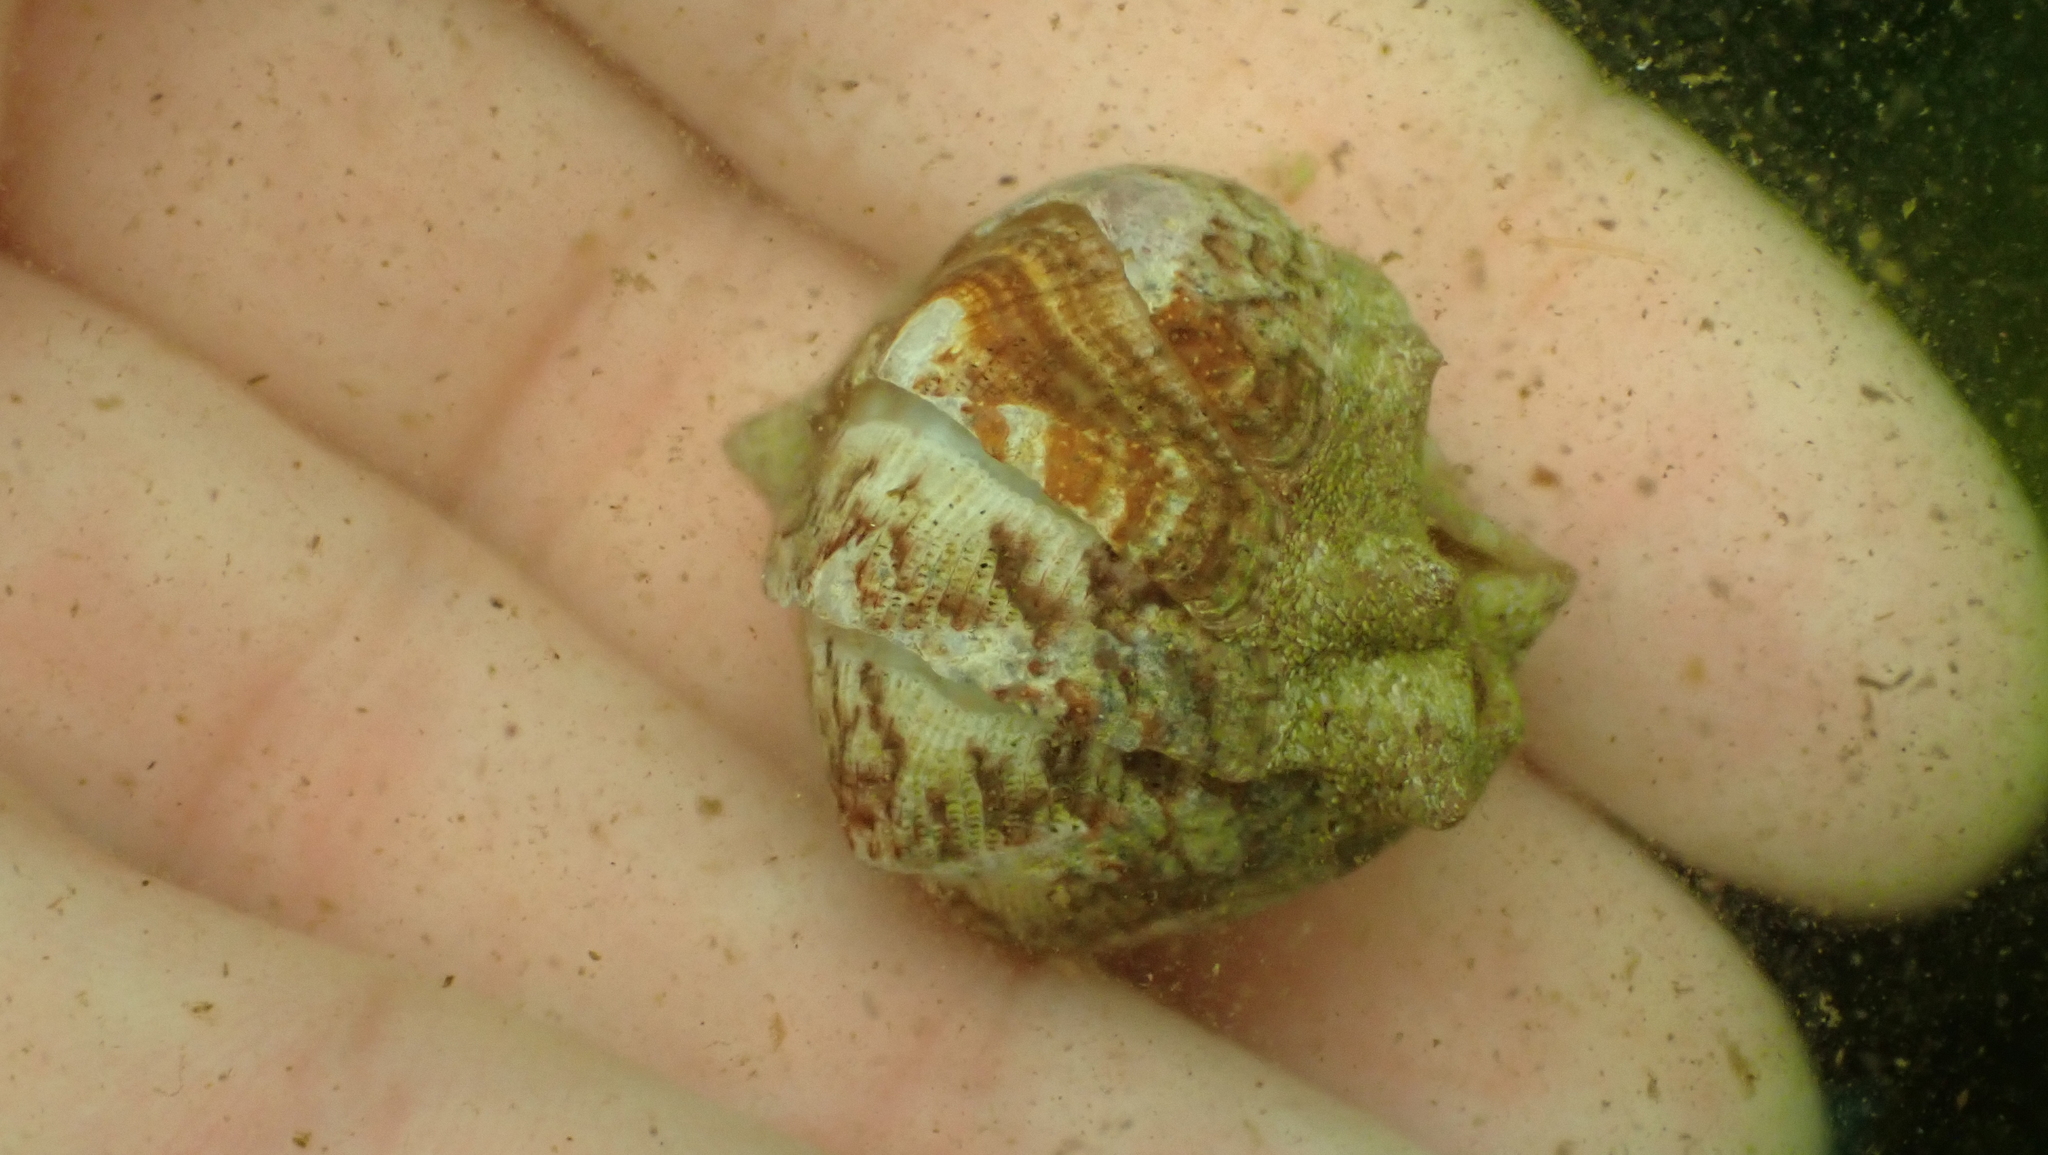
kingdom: Animalia
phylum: Mollusca
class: Polyplacophora
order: Chitonida
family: Ischnochitonidae
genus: Lepidozona
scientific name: Lepidozona mertensii
